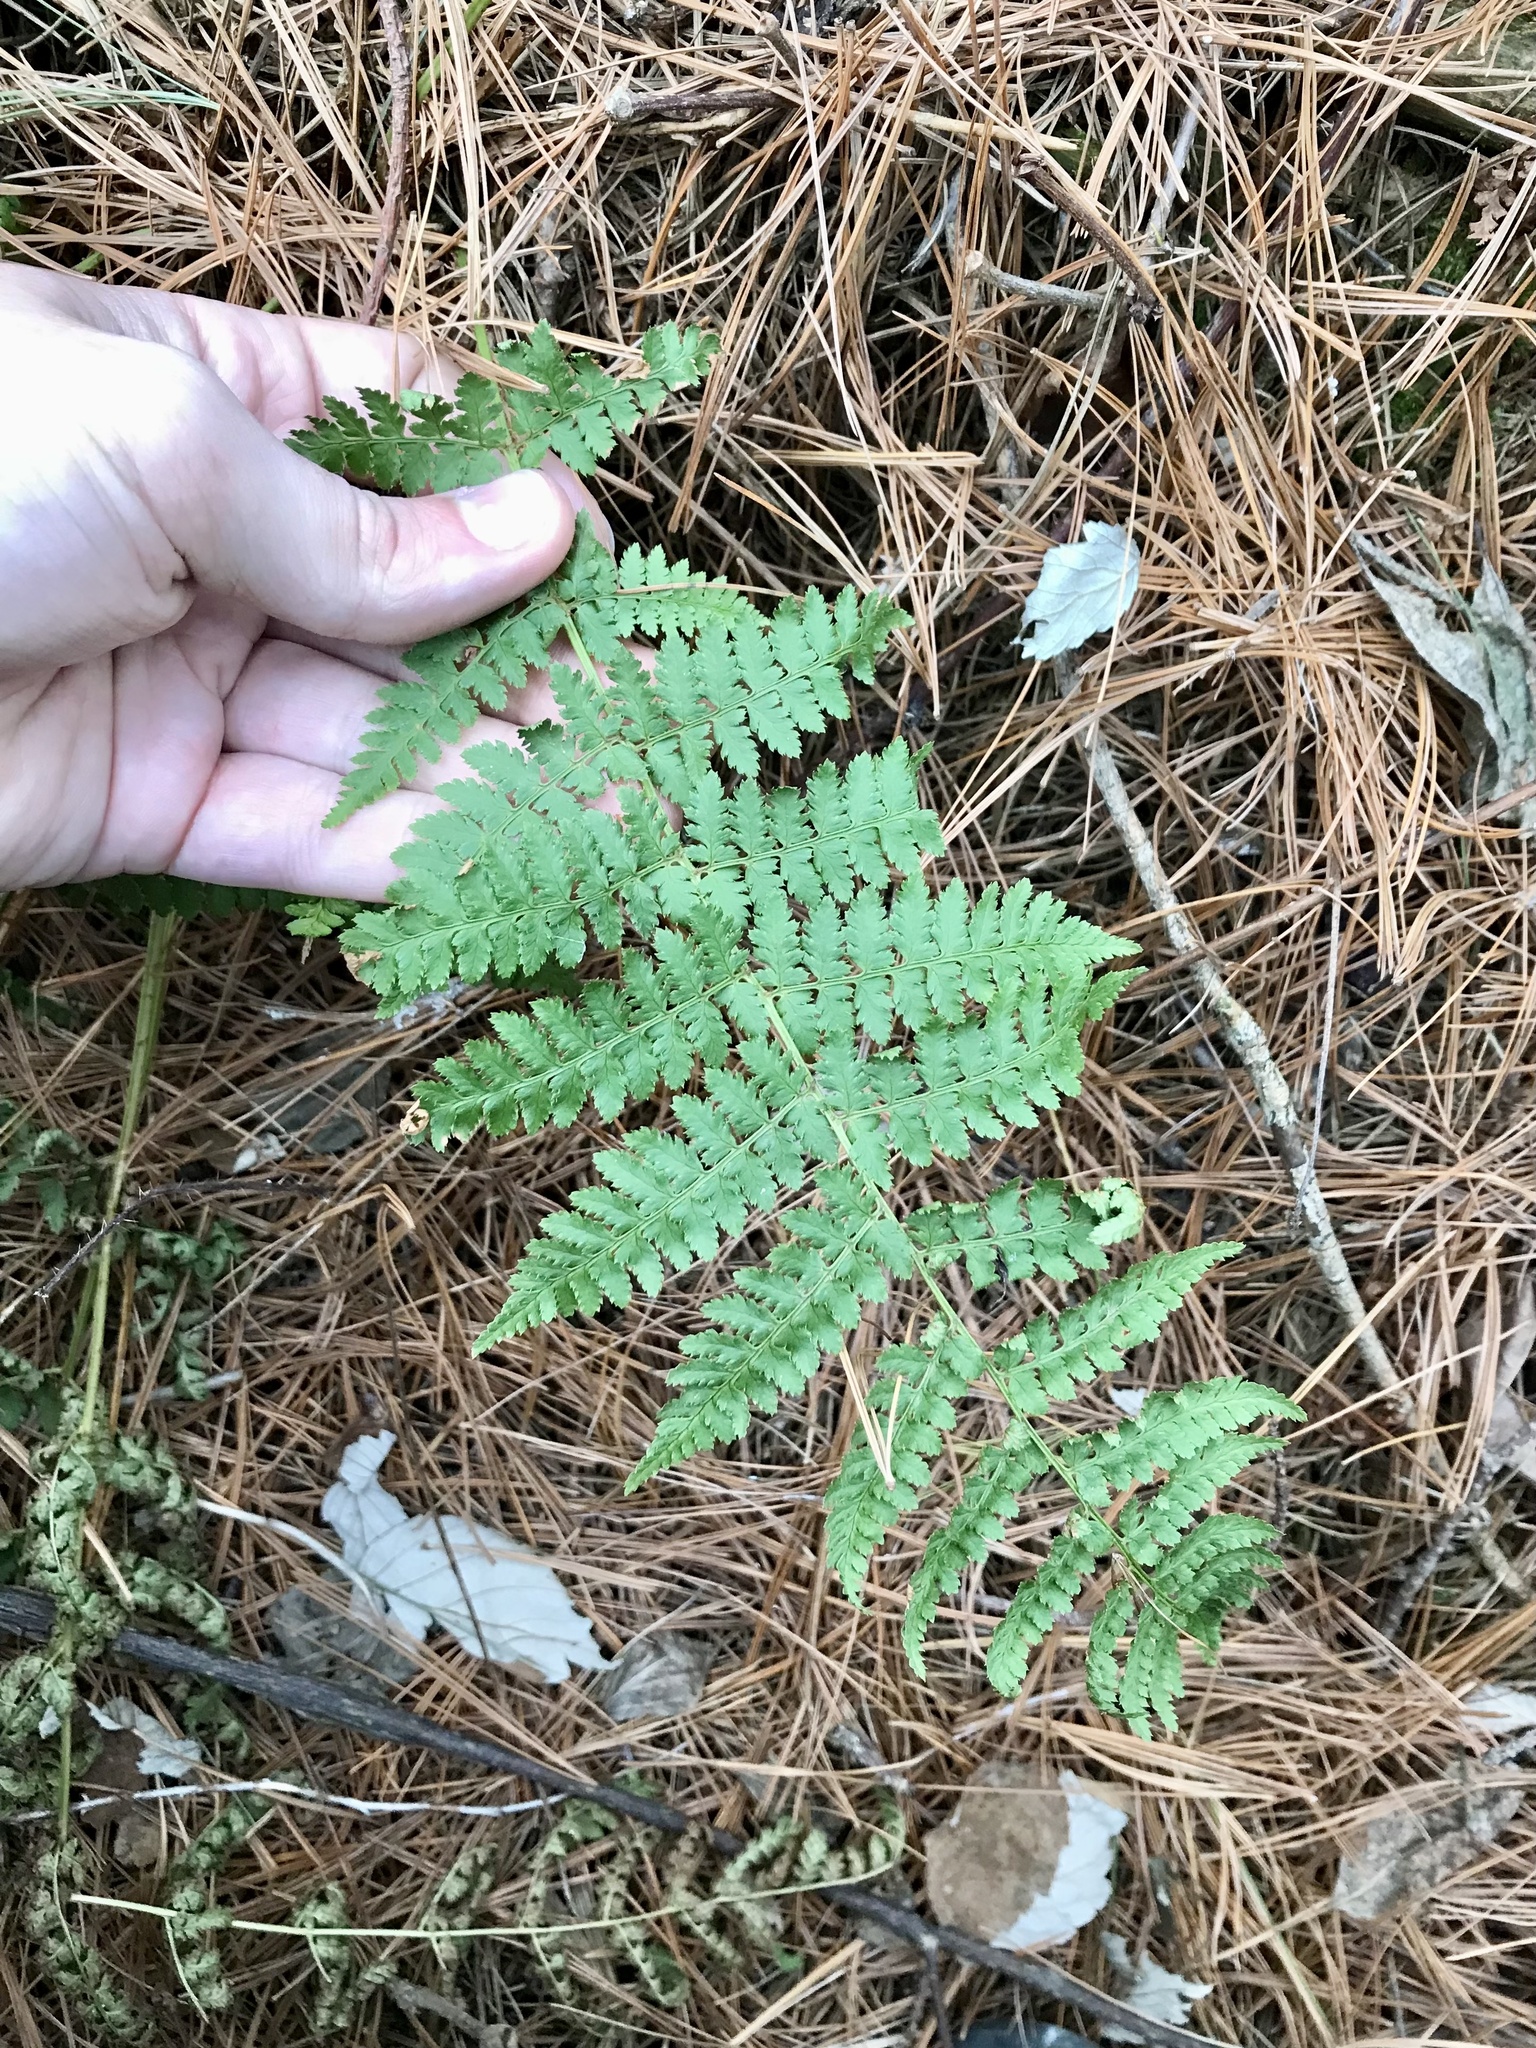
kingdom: Plantae
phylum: Tracheophyta
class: Polypodiopsida
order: Polypodiales
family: Dryopteridaceae
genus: Dryopteris
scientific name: Dryopteris intermedia
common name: Evergreen wood fern
